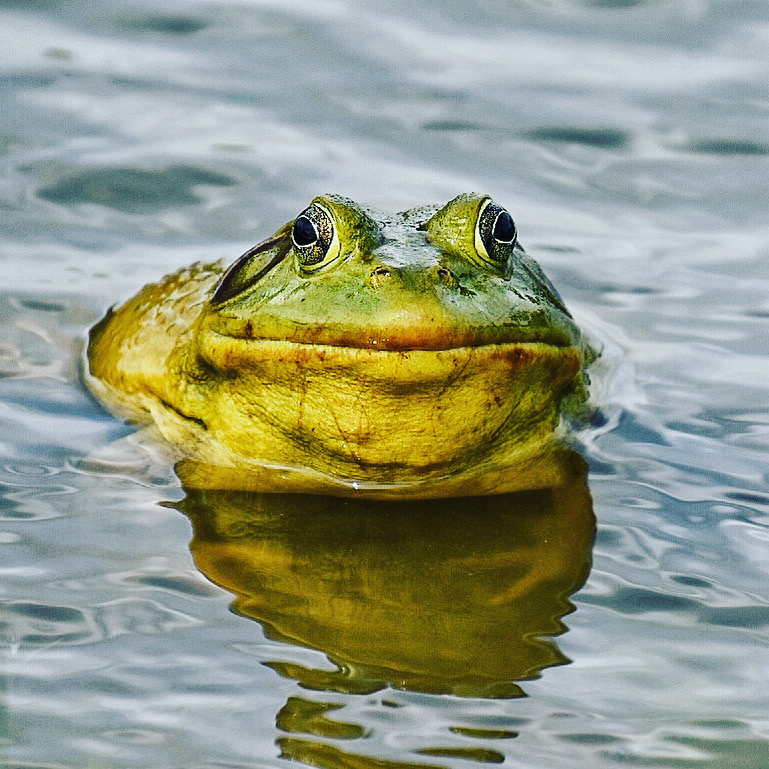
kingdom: Animalia
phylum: Chordata
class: Amphibia
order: Anura
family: Ranidae
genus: Lithobates
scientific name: Lithobates catesbeianus
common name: American bullfrog
